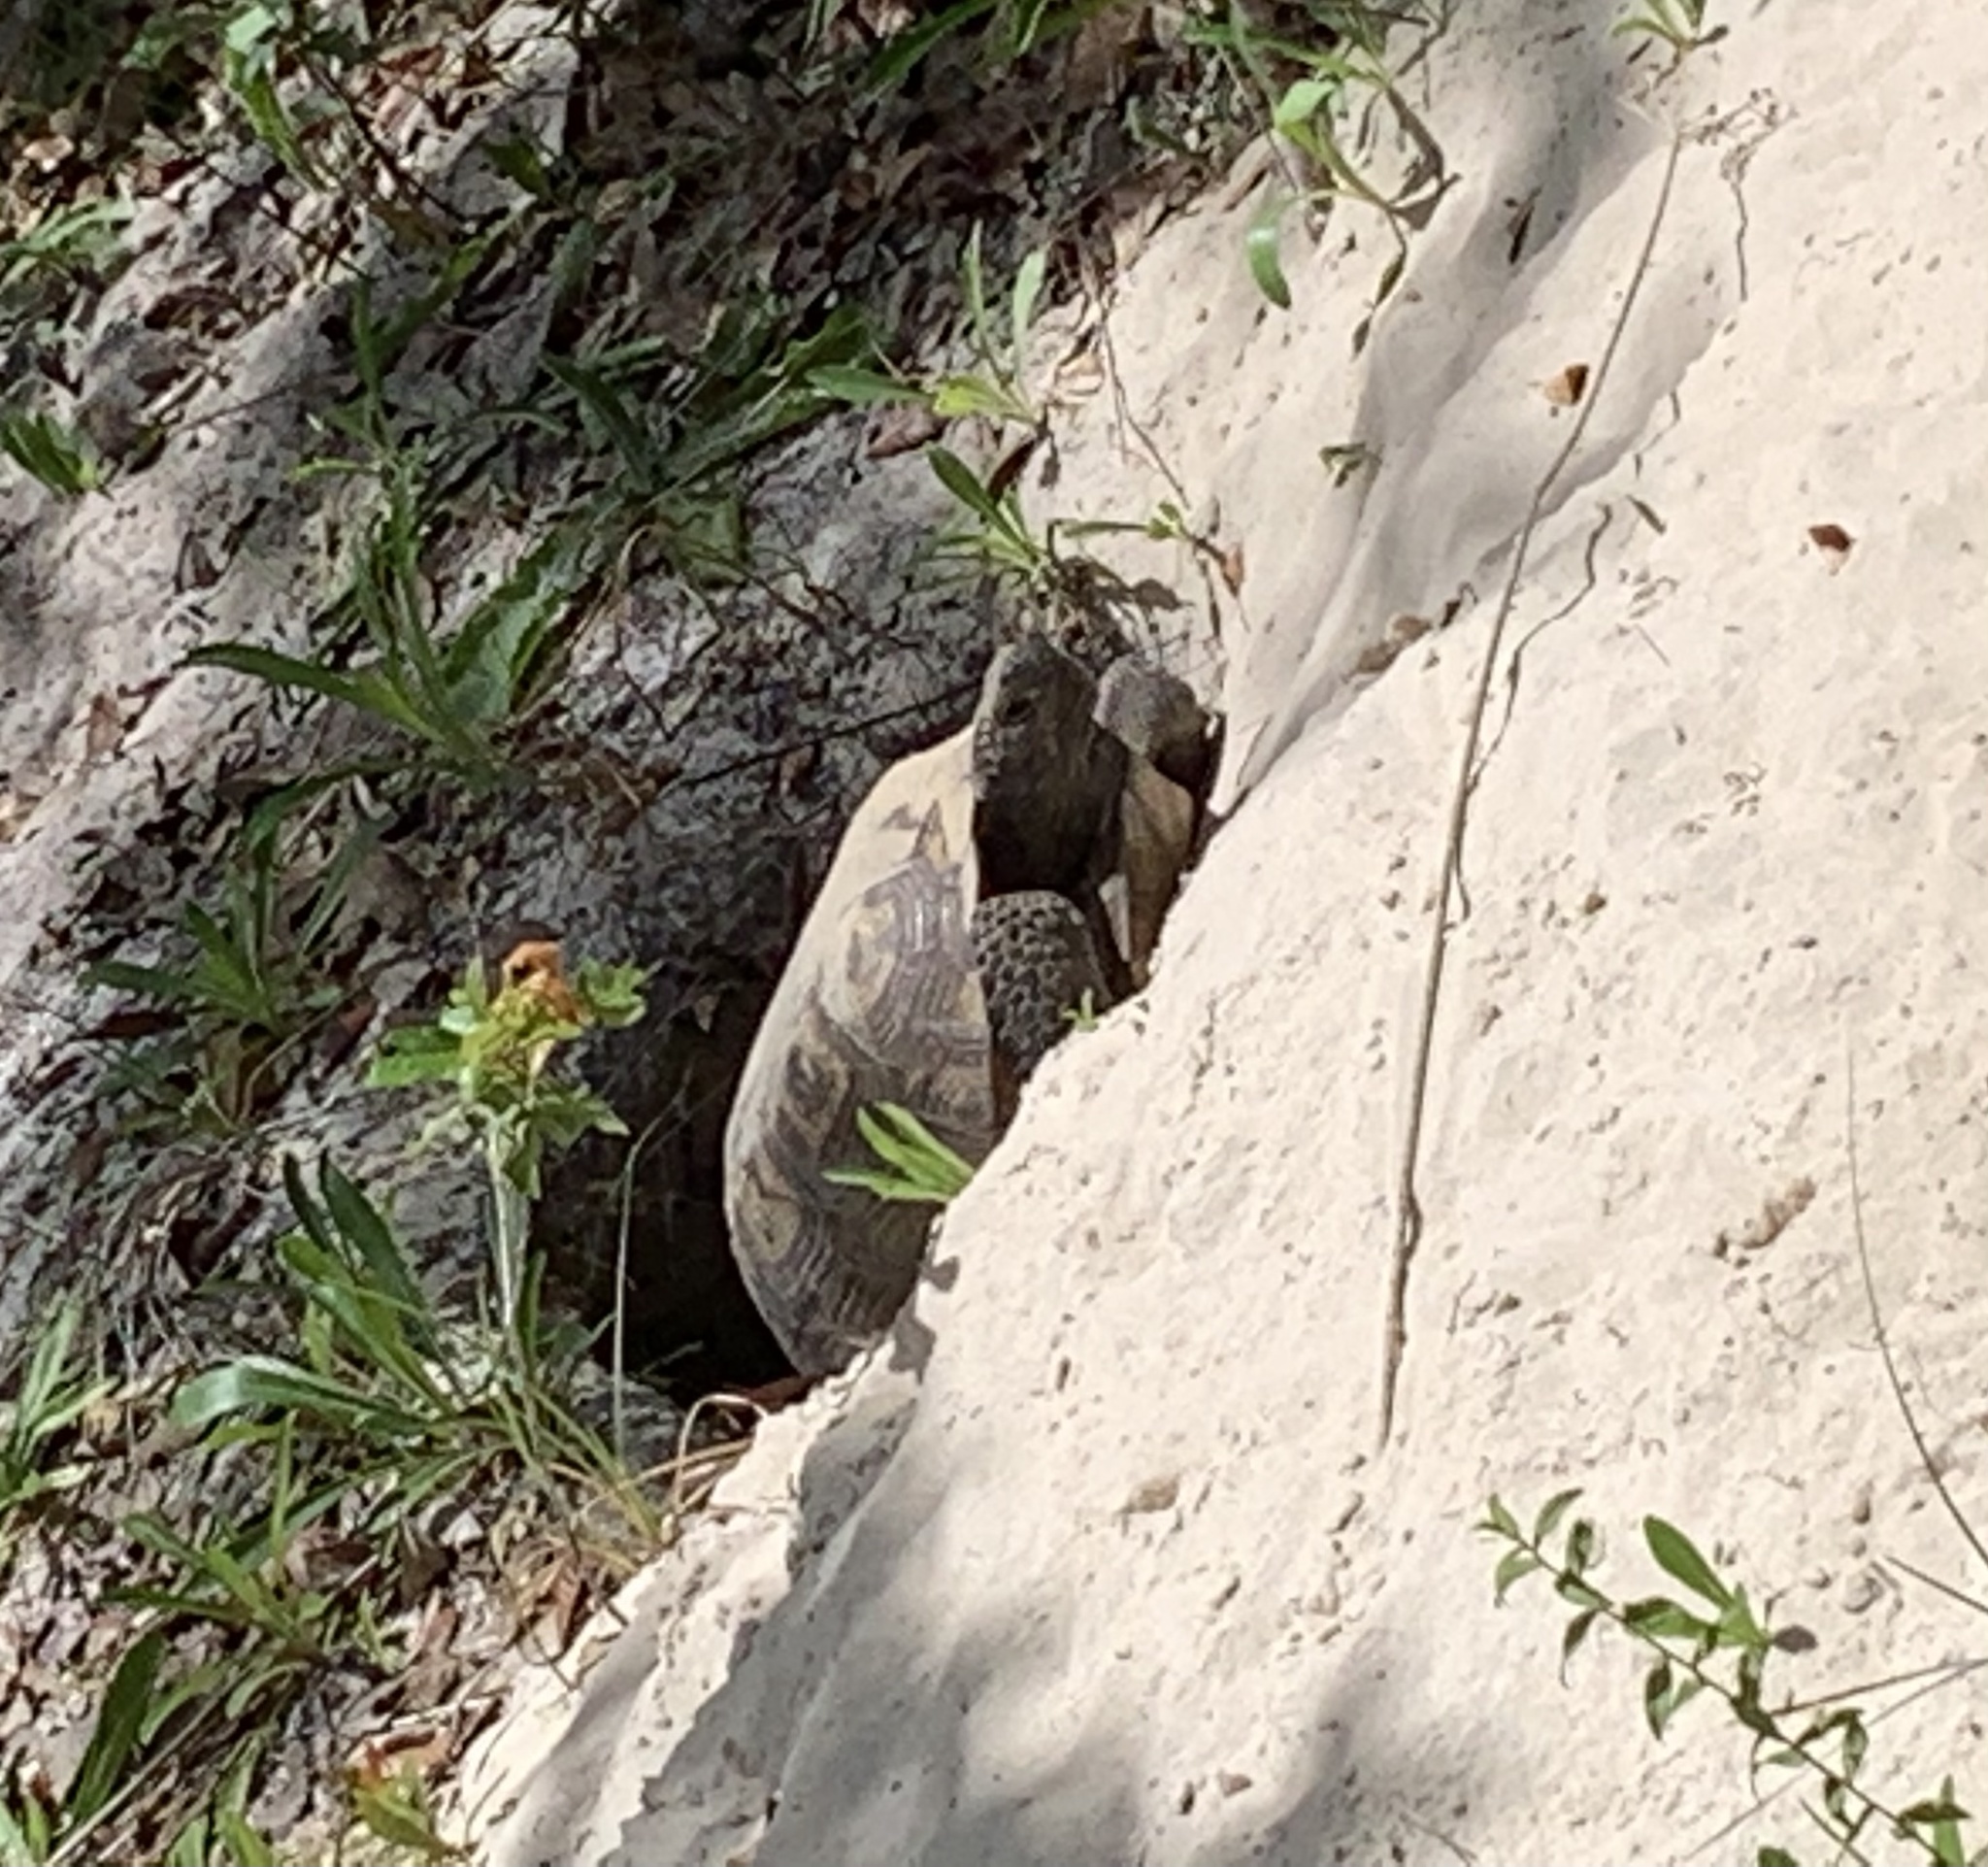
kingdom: Animalia
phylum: Chordata
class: Testudines
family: Testudinidae
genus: Gopherus
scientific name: Gopherus polyphemus
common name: Florida gopher tortoise
